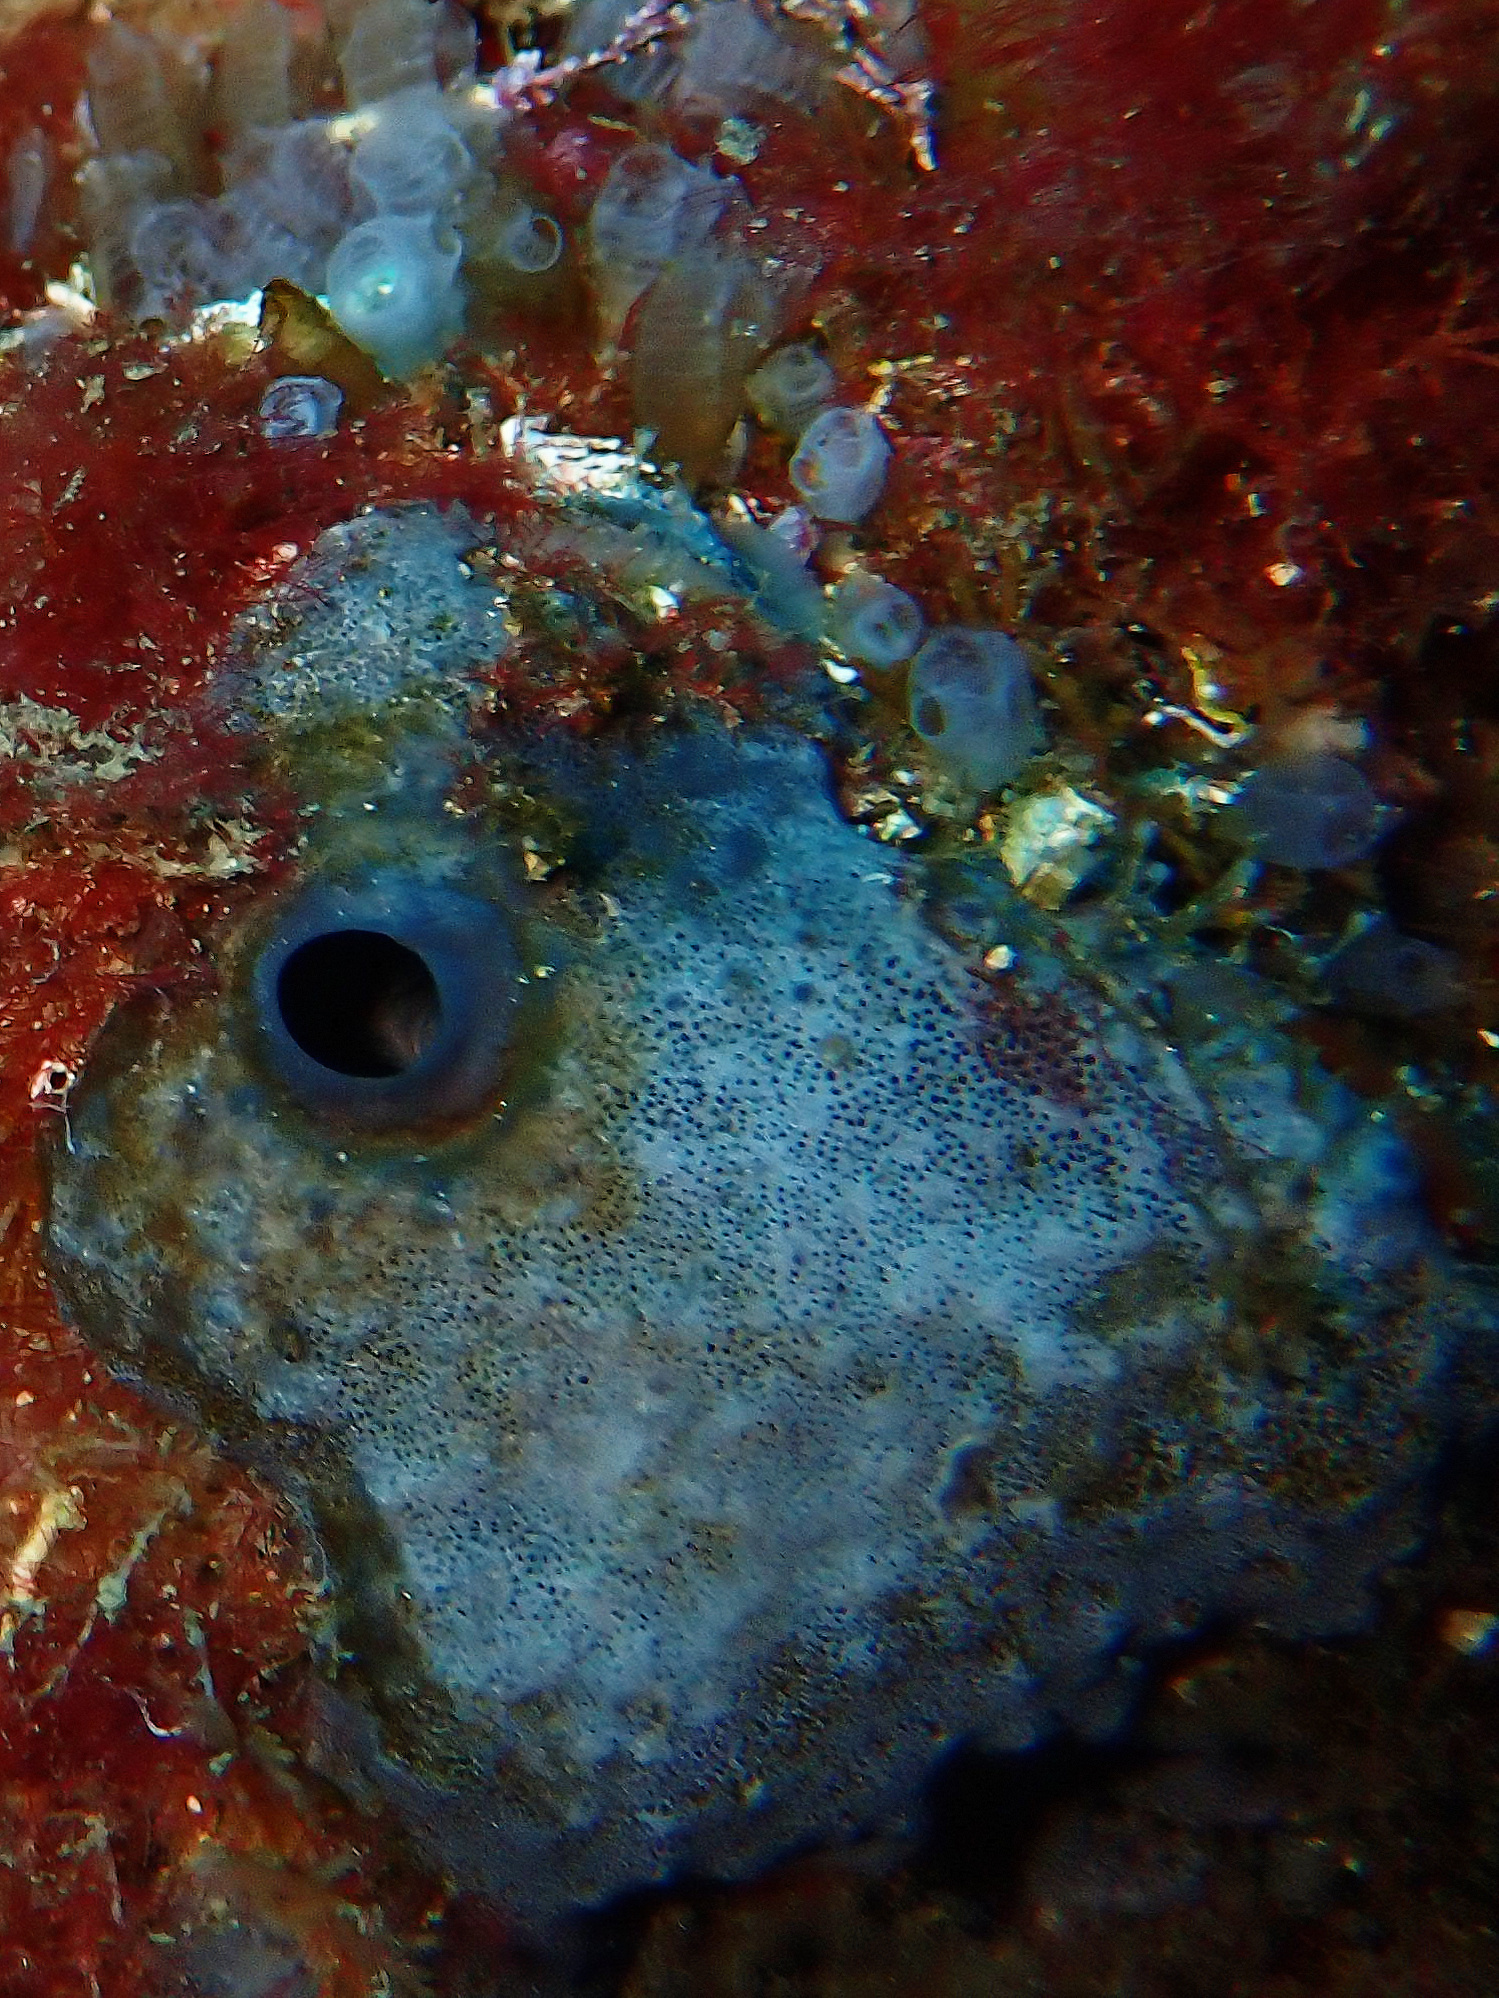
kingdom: Animalia
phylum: Porifera
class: Demospongiae
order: Dictyoceratida
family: Irciniidae
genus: Ircinia
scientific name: Ircinia oros
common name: Grey leather sponge
